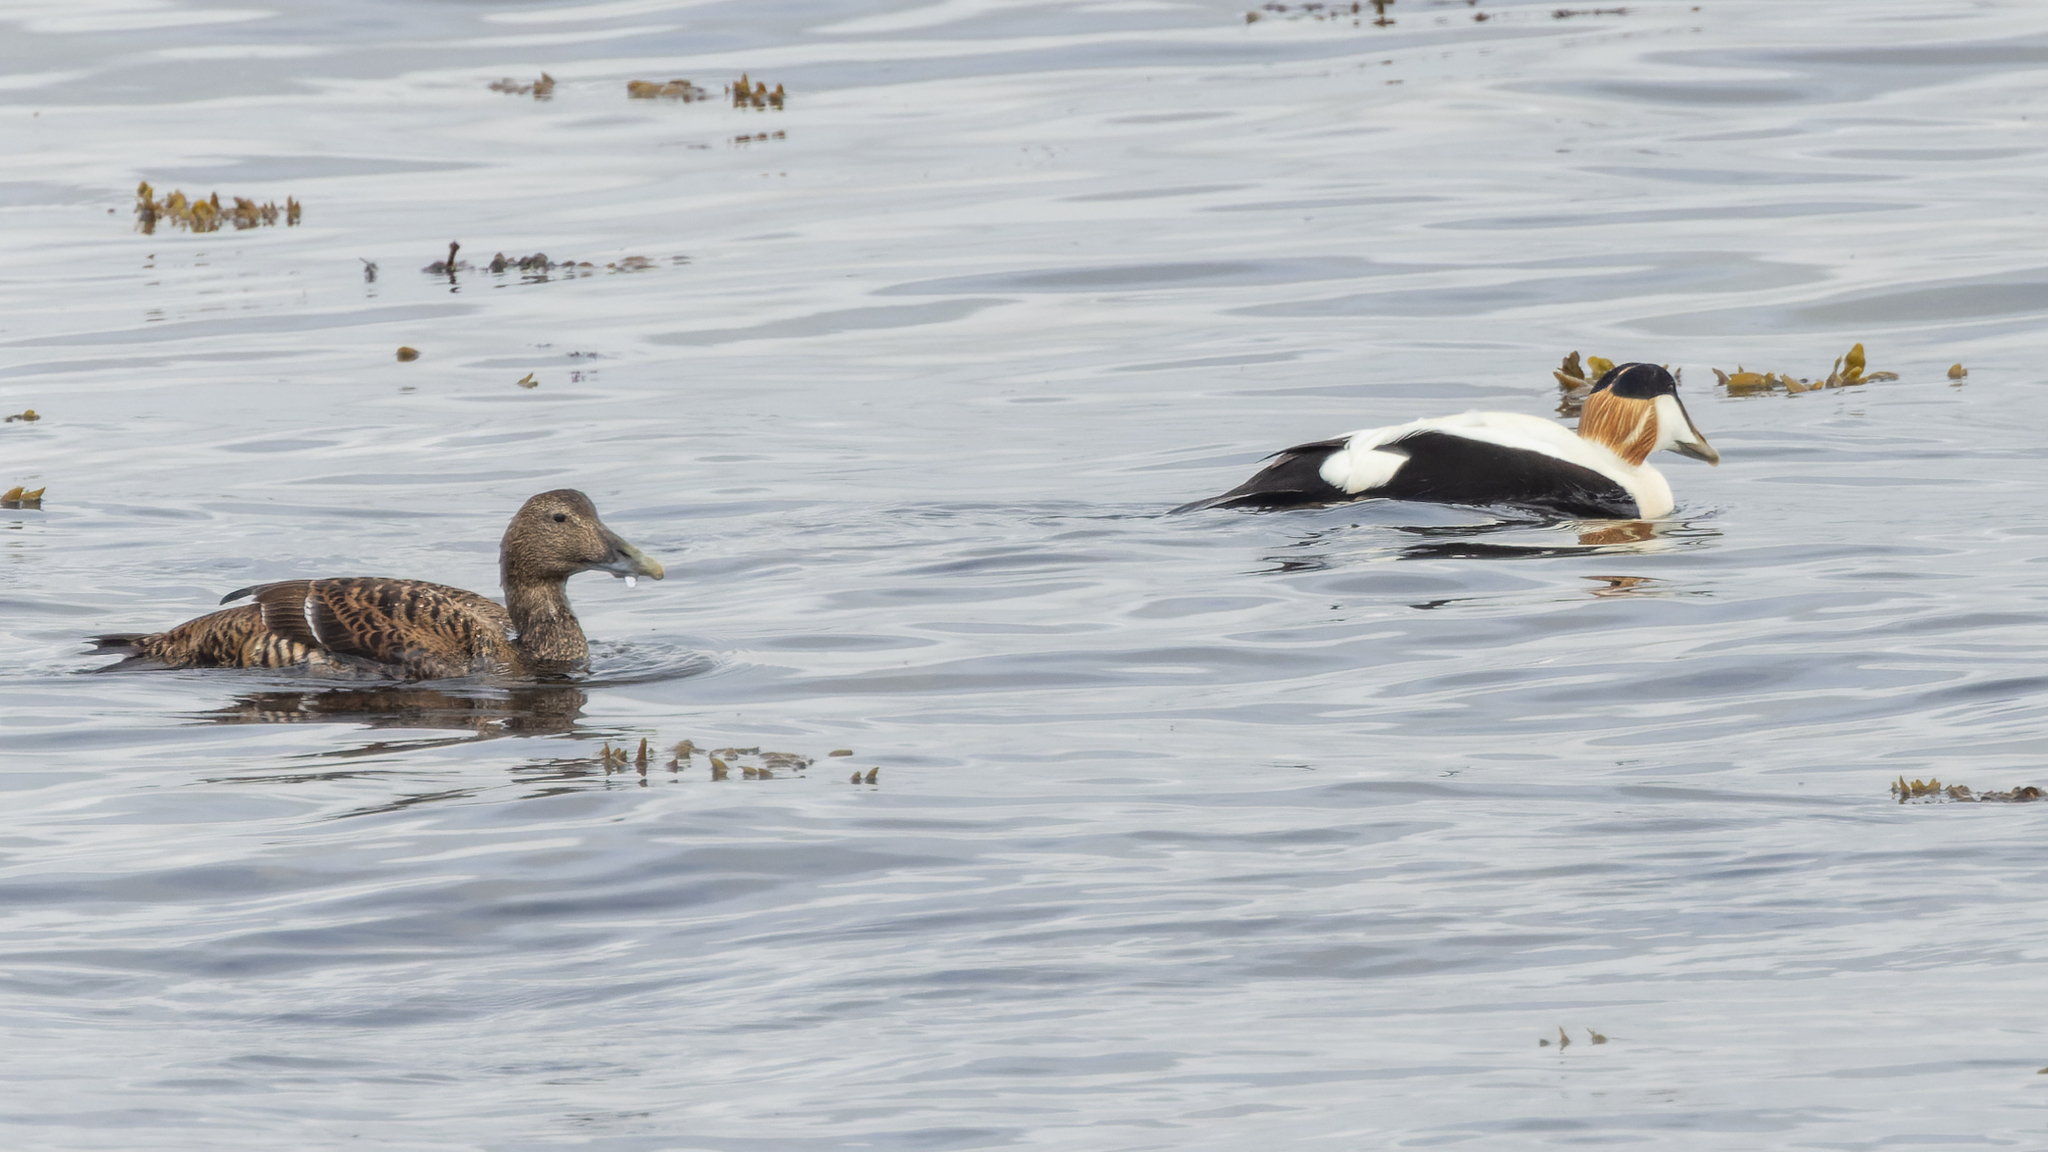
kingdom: Animalia
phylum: Chordata
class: Aves
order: Anseriformes
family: Anatidae
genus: Somateria
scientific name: Somateria mollissima
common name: Common eider
